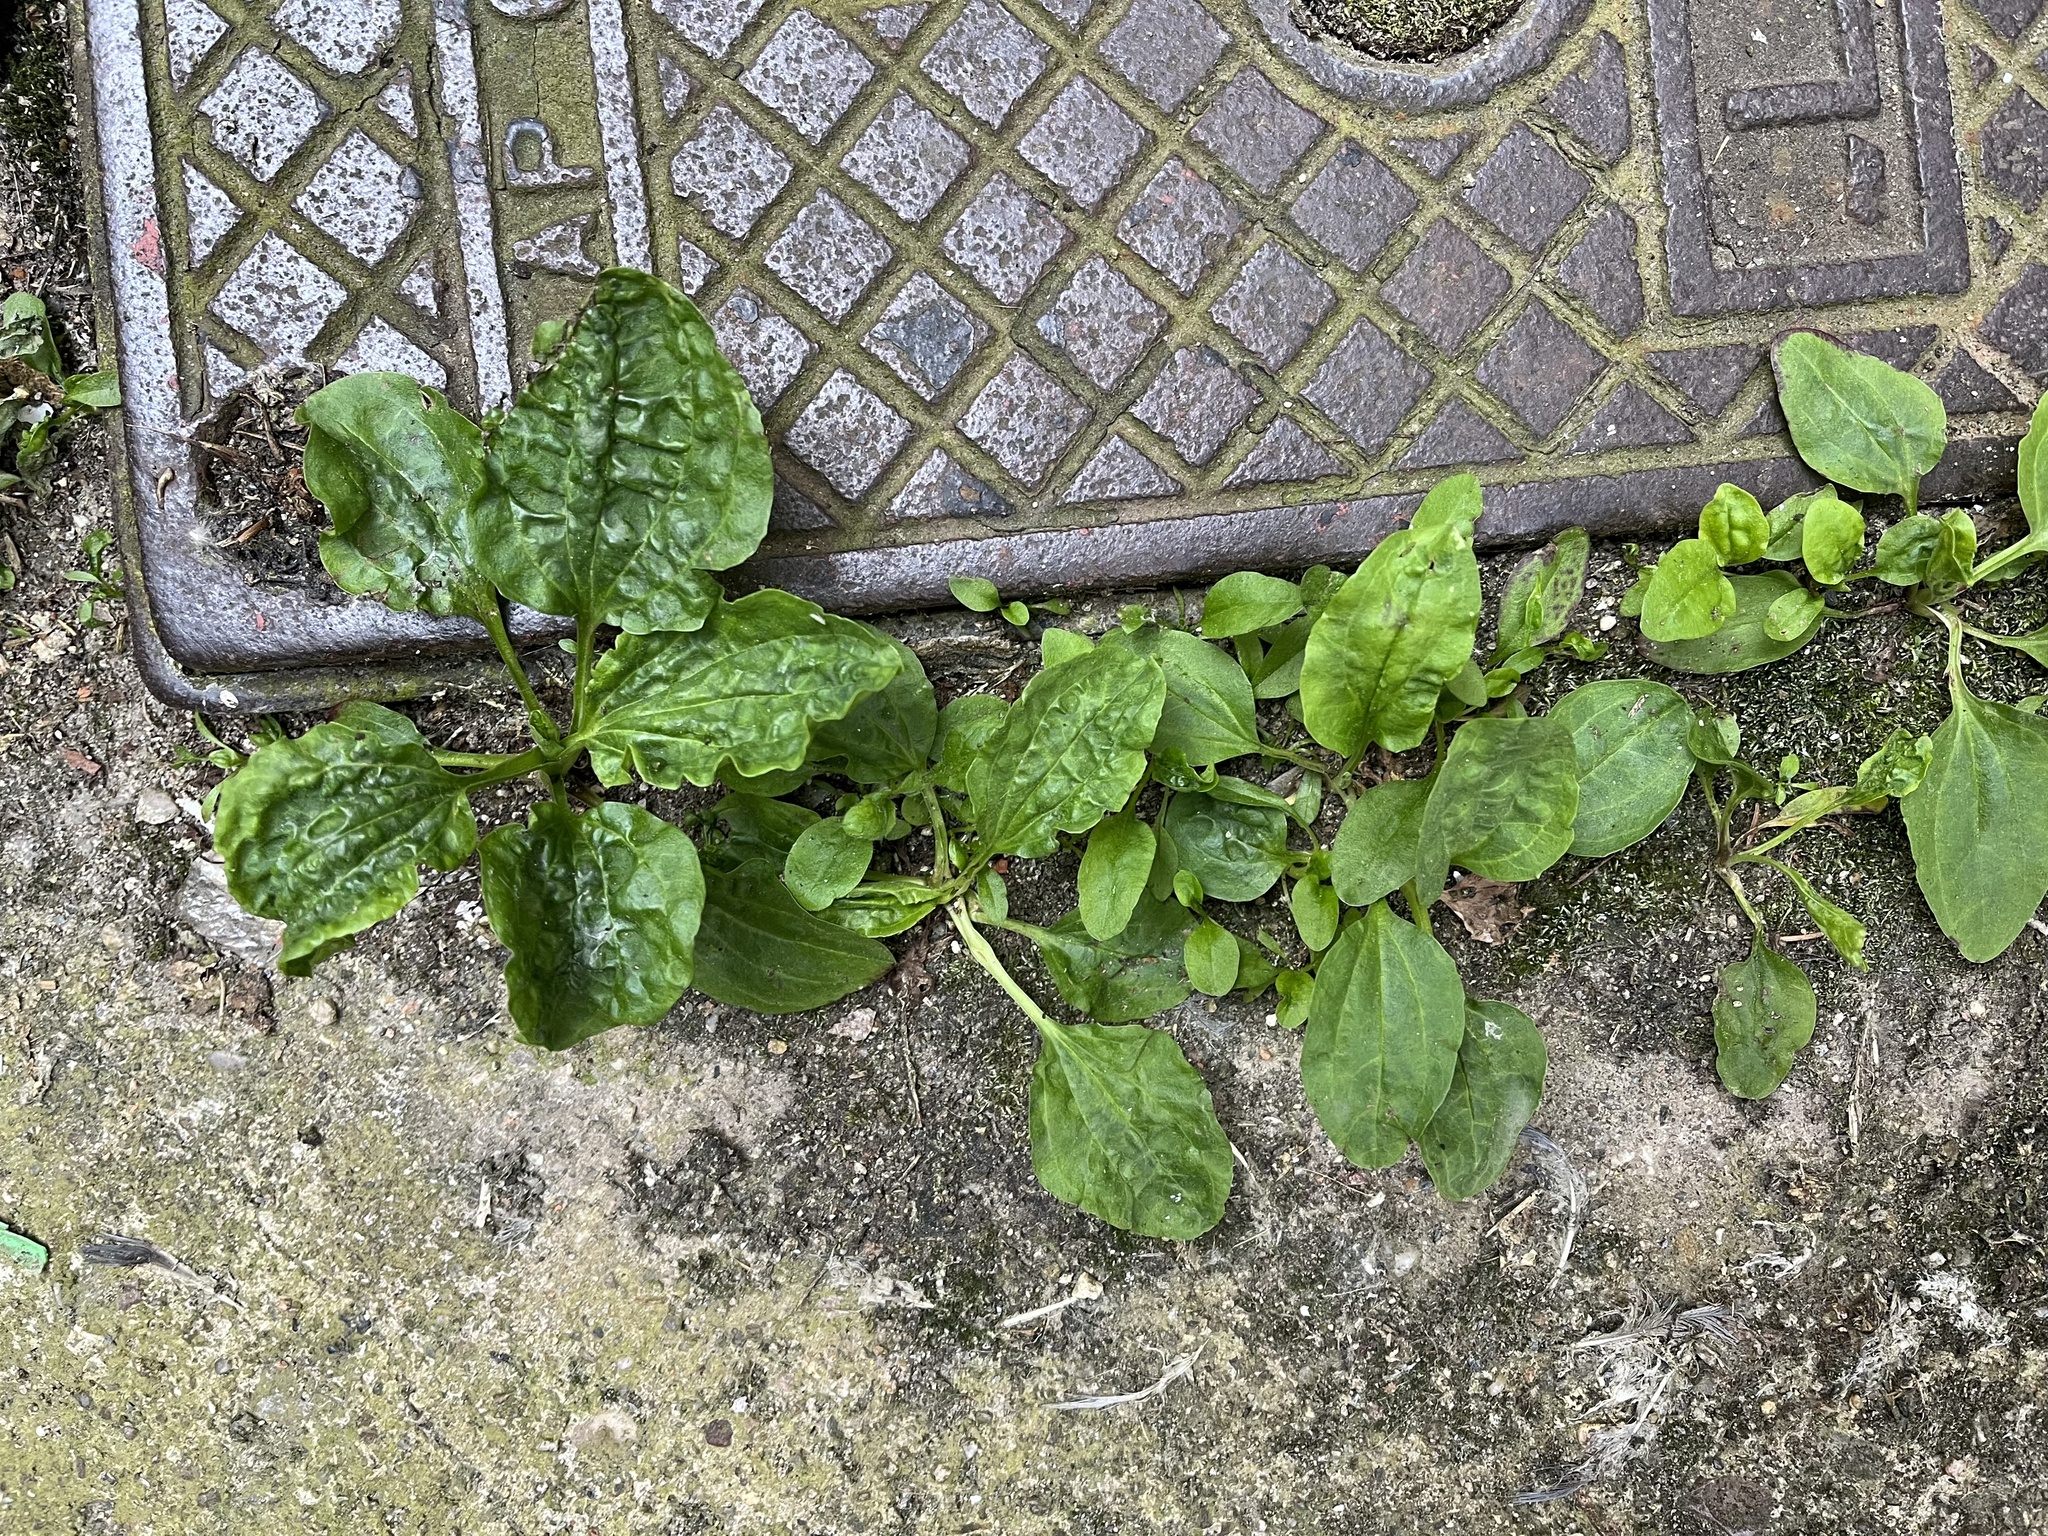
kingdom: Plantae
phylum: Tracheophyta
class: Magnoliopsida
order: Lamiales
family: Plantaginaceae
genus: Plantago
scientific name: Plantago major
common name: Common plantain
